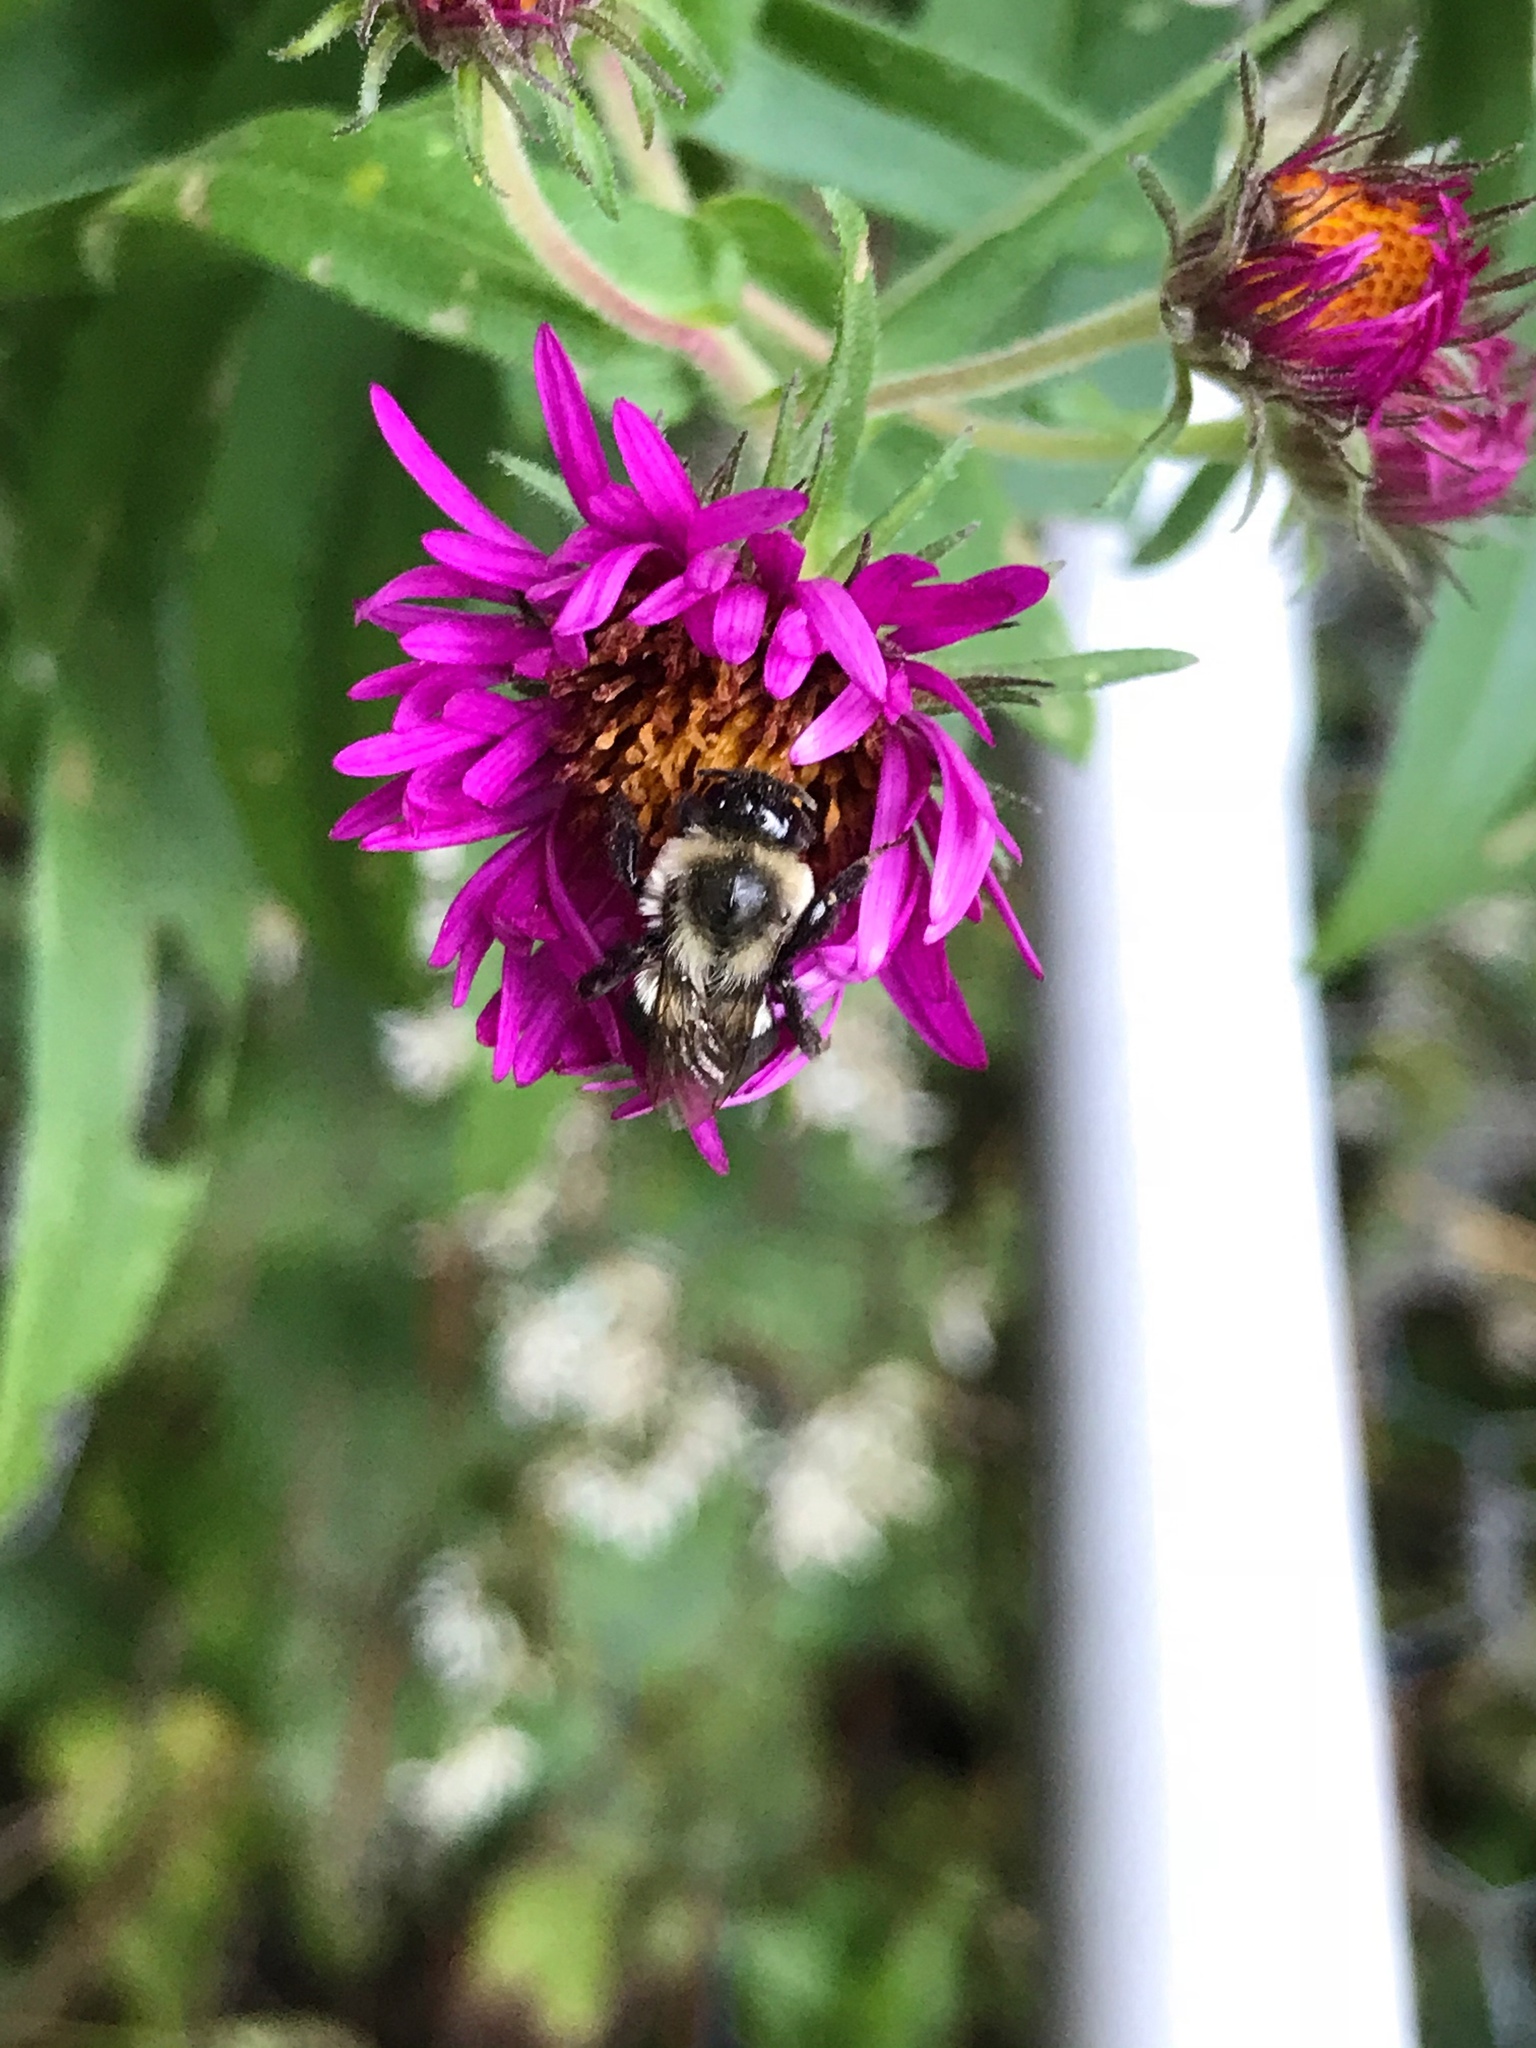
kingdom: Animalia
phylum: Arthropoda
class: Insecta
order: Hymenoptera
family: Apidae
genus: Bombus
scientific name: Bombus impatiens
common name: Common eastern bumble bee
